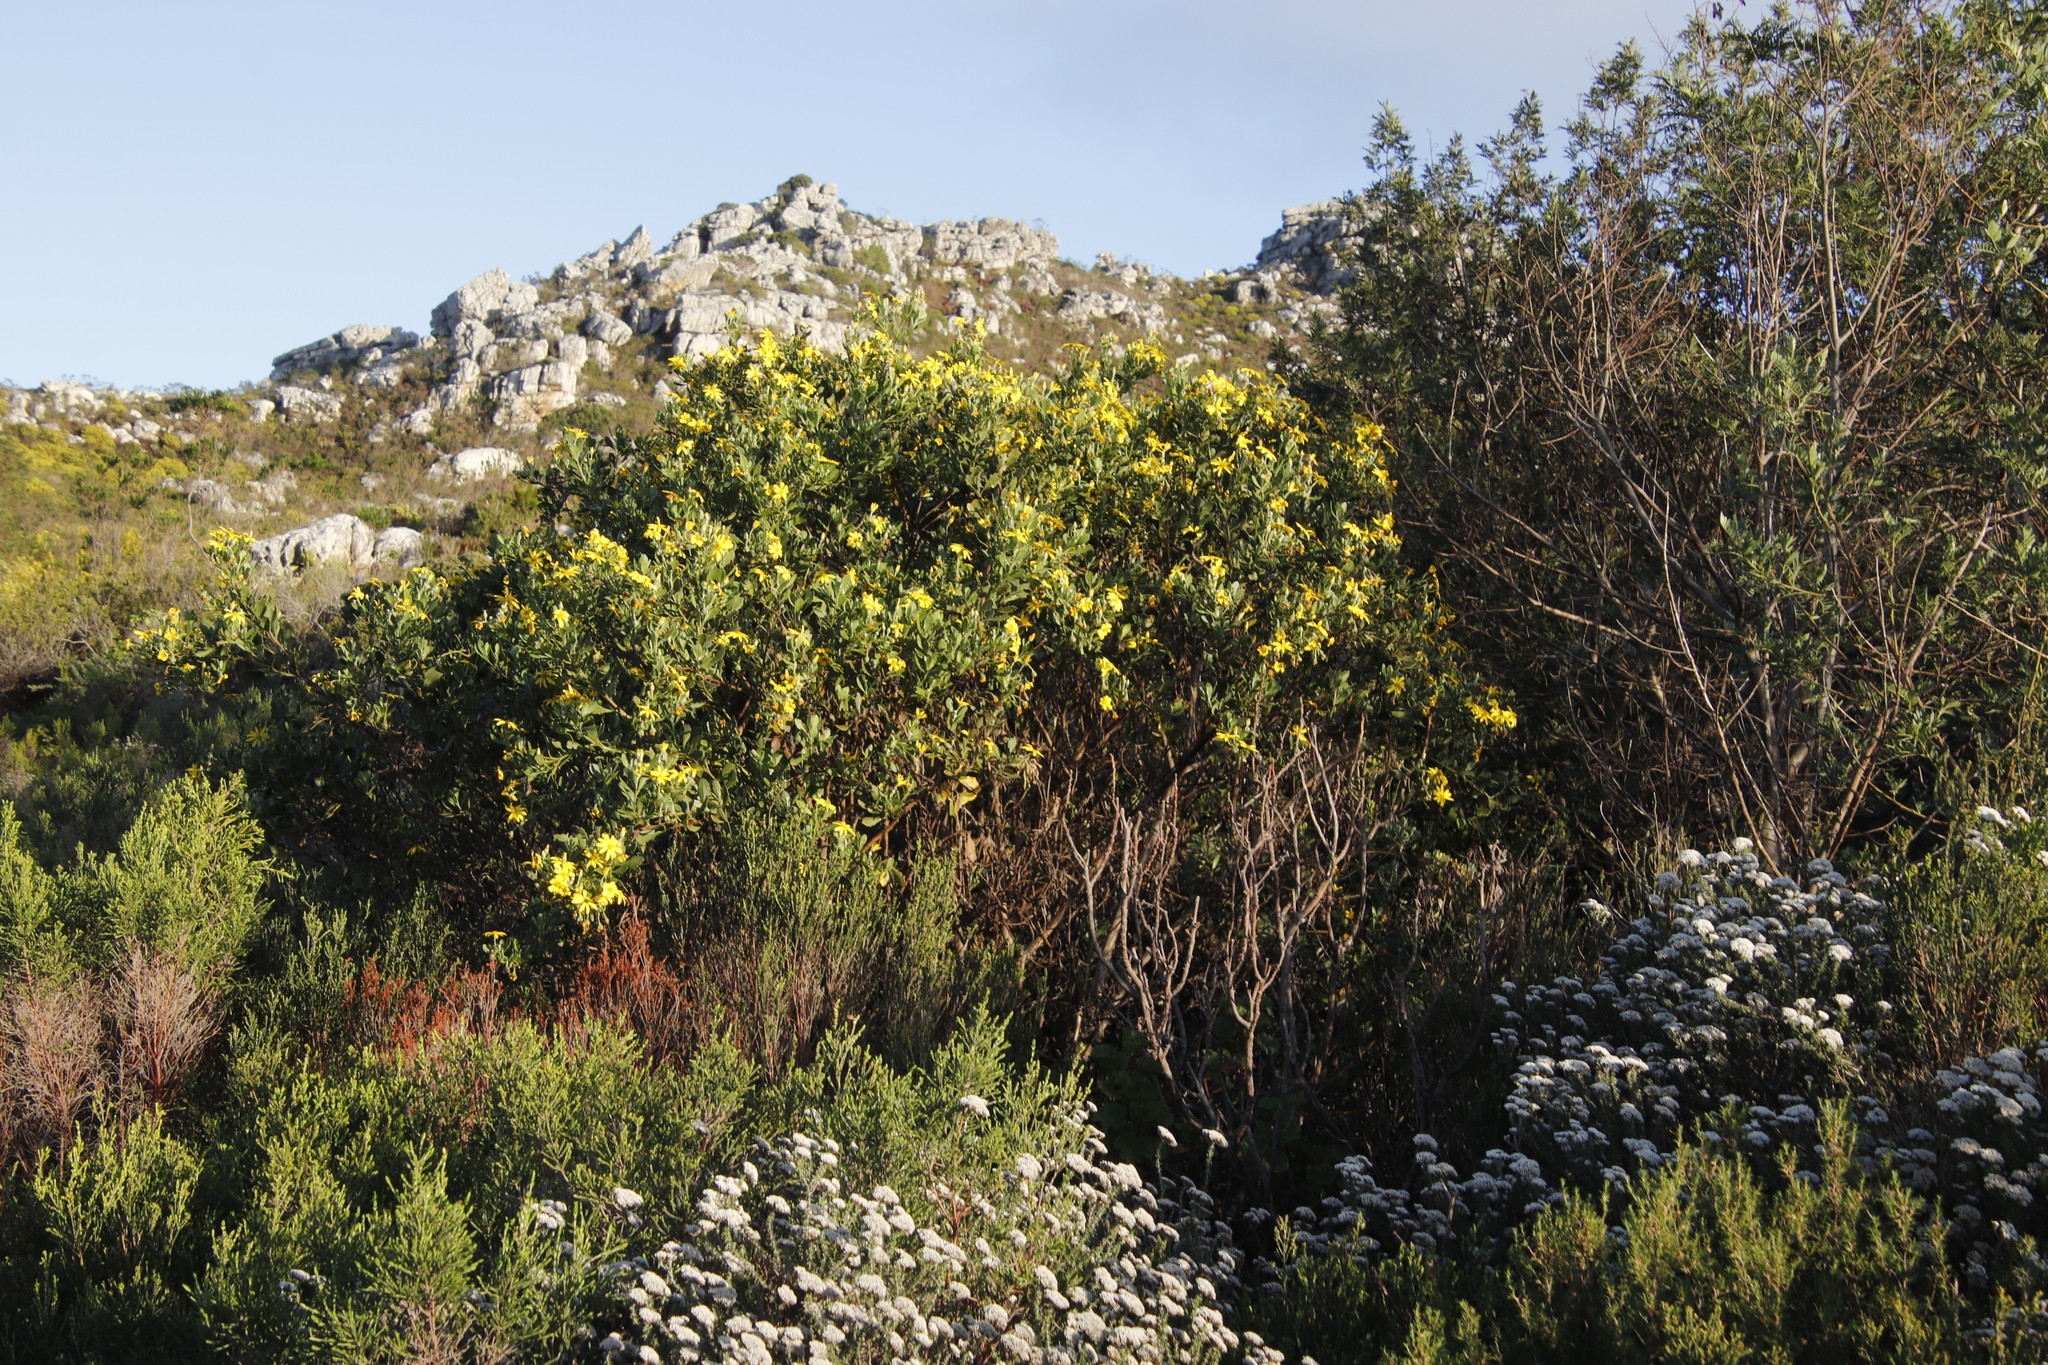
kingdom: Plantae
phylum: Tracheophyta
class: Magnoliopsida
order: Asterales
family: Asteraceae
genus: Osteospermum
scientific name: Osteospermum moniliferum
